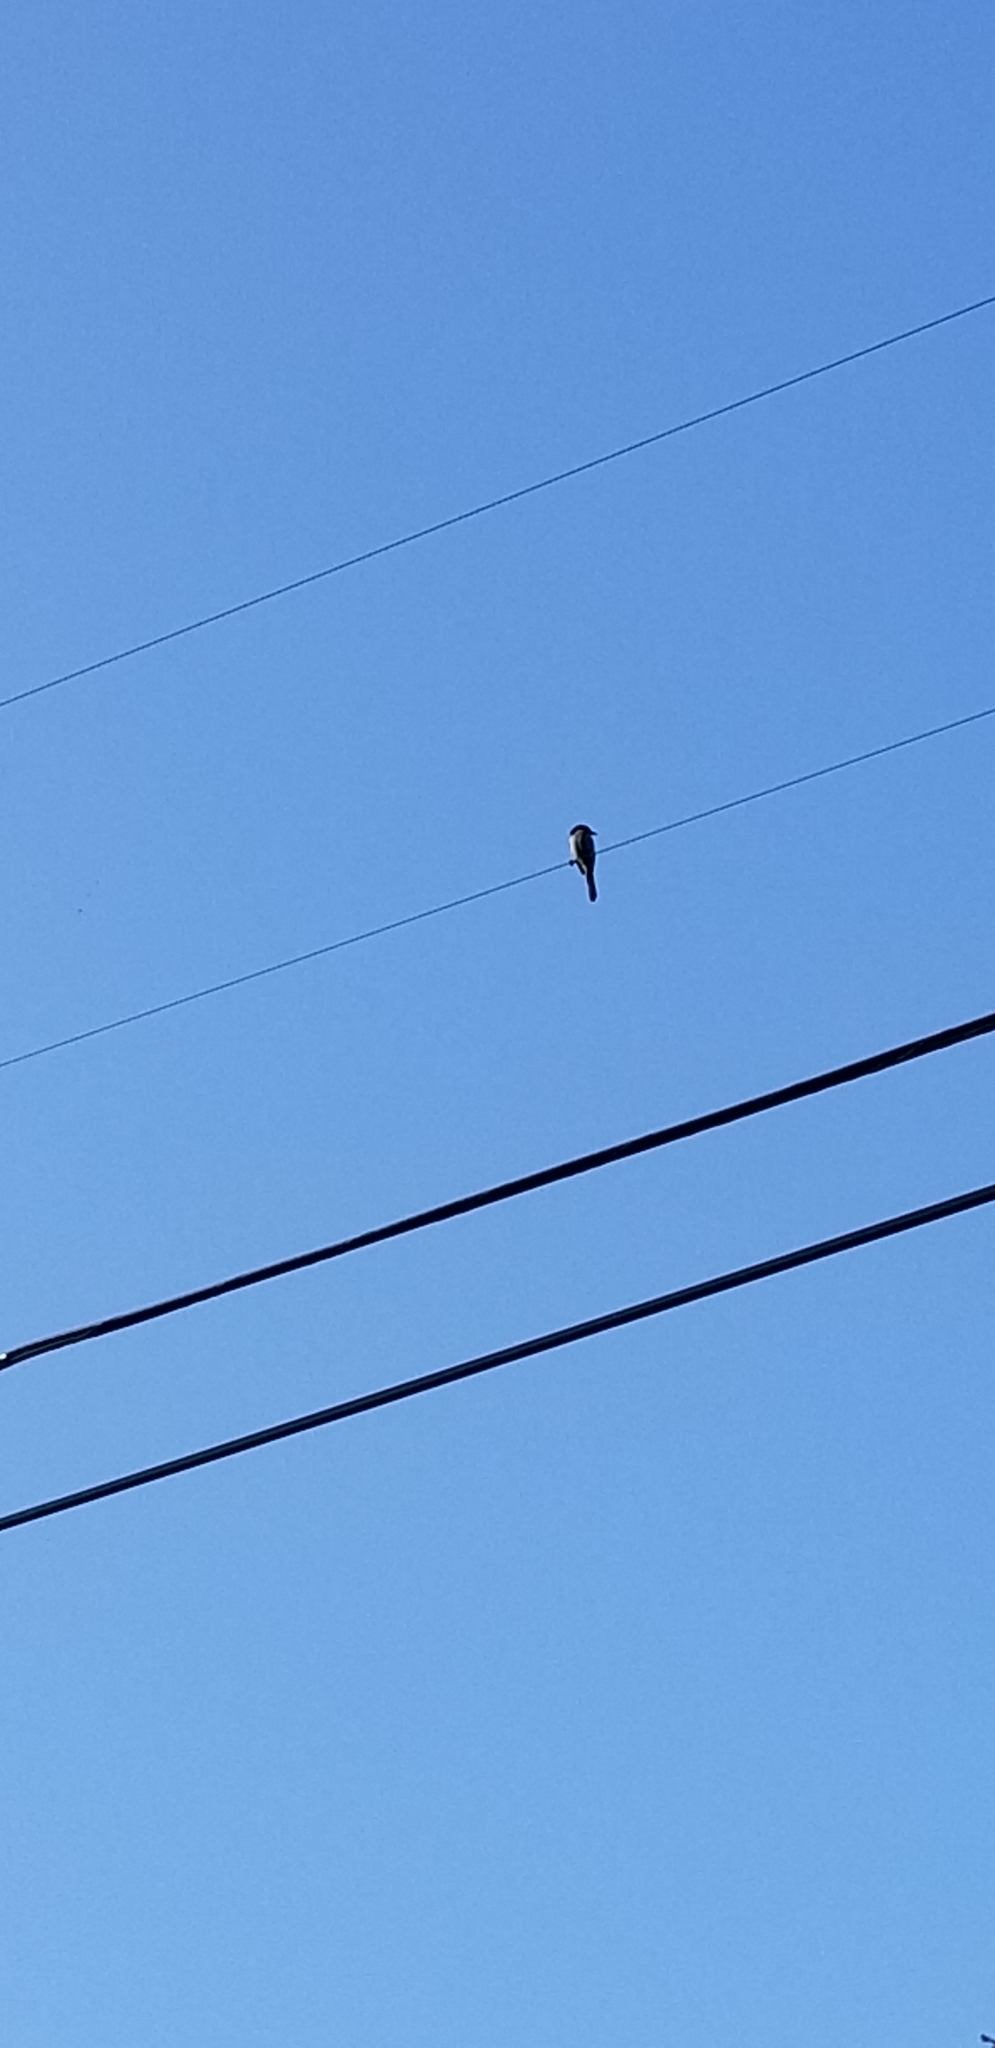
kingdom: Animalia
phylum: Chordata
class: Aves
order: Passeriformes
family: Corvidae
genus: Aphelocoma
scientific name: Aphelocoma californica
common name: California scrub-jay
